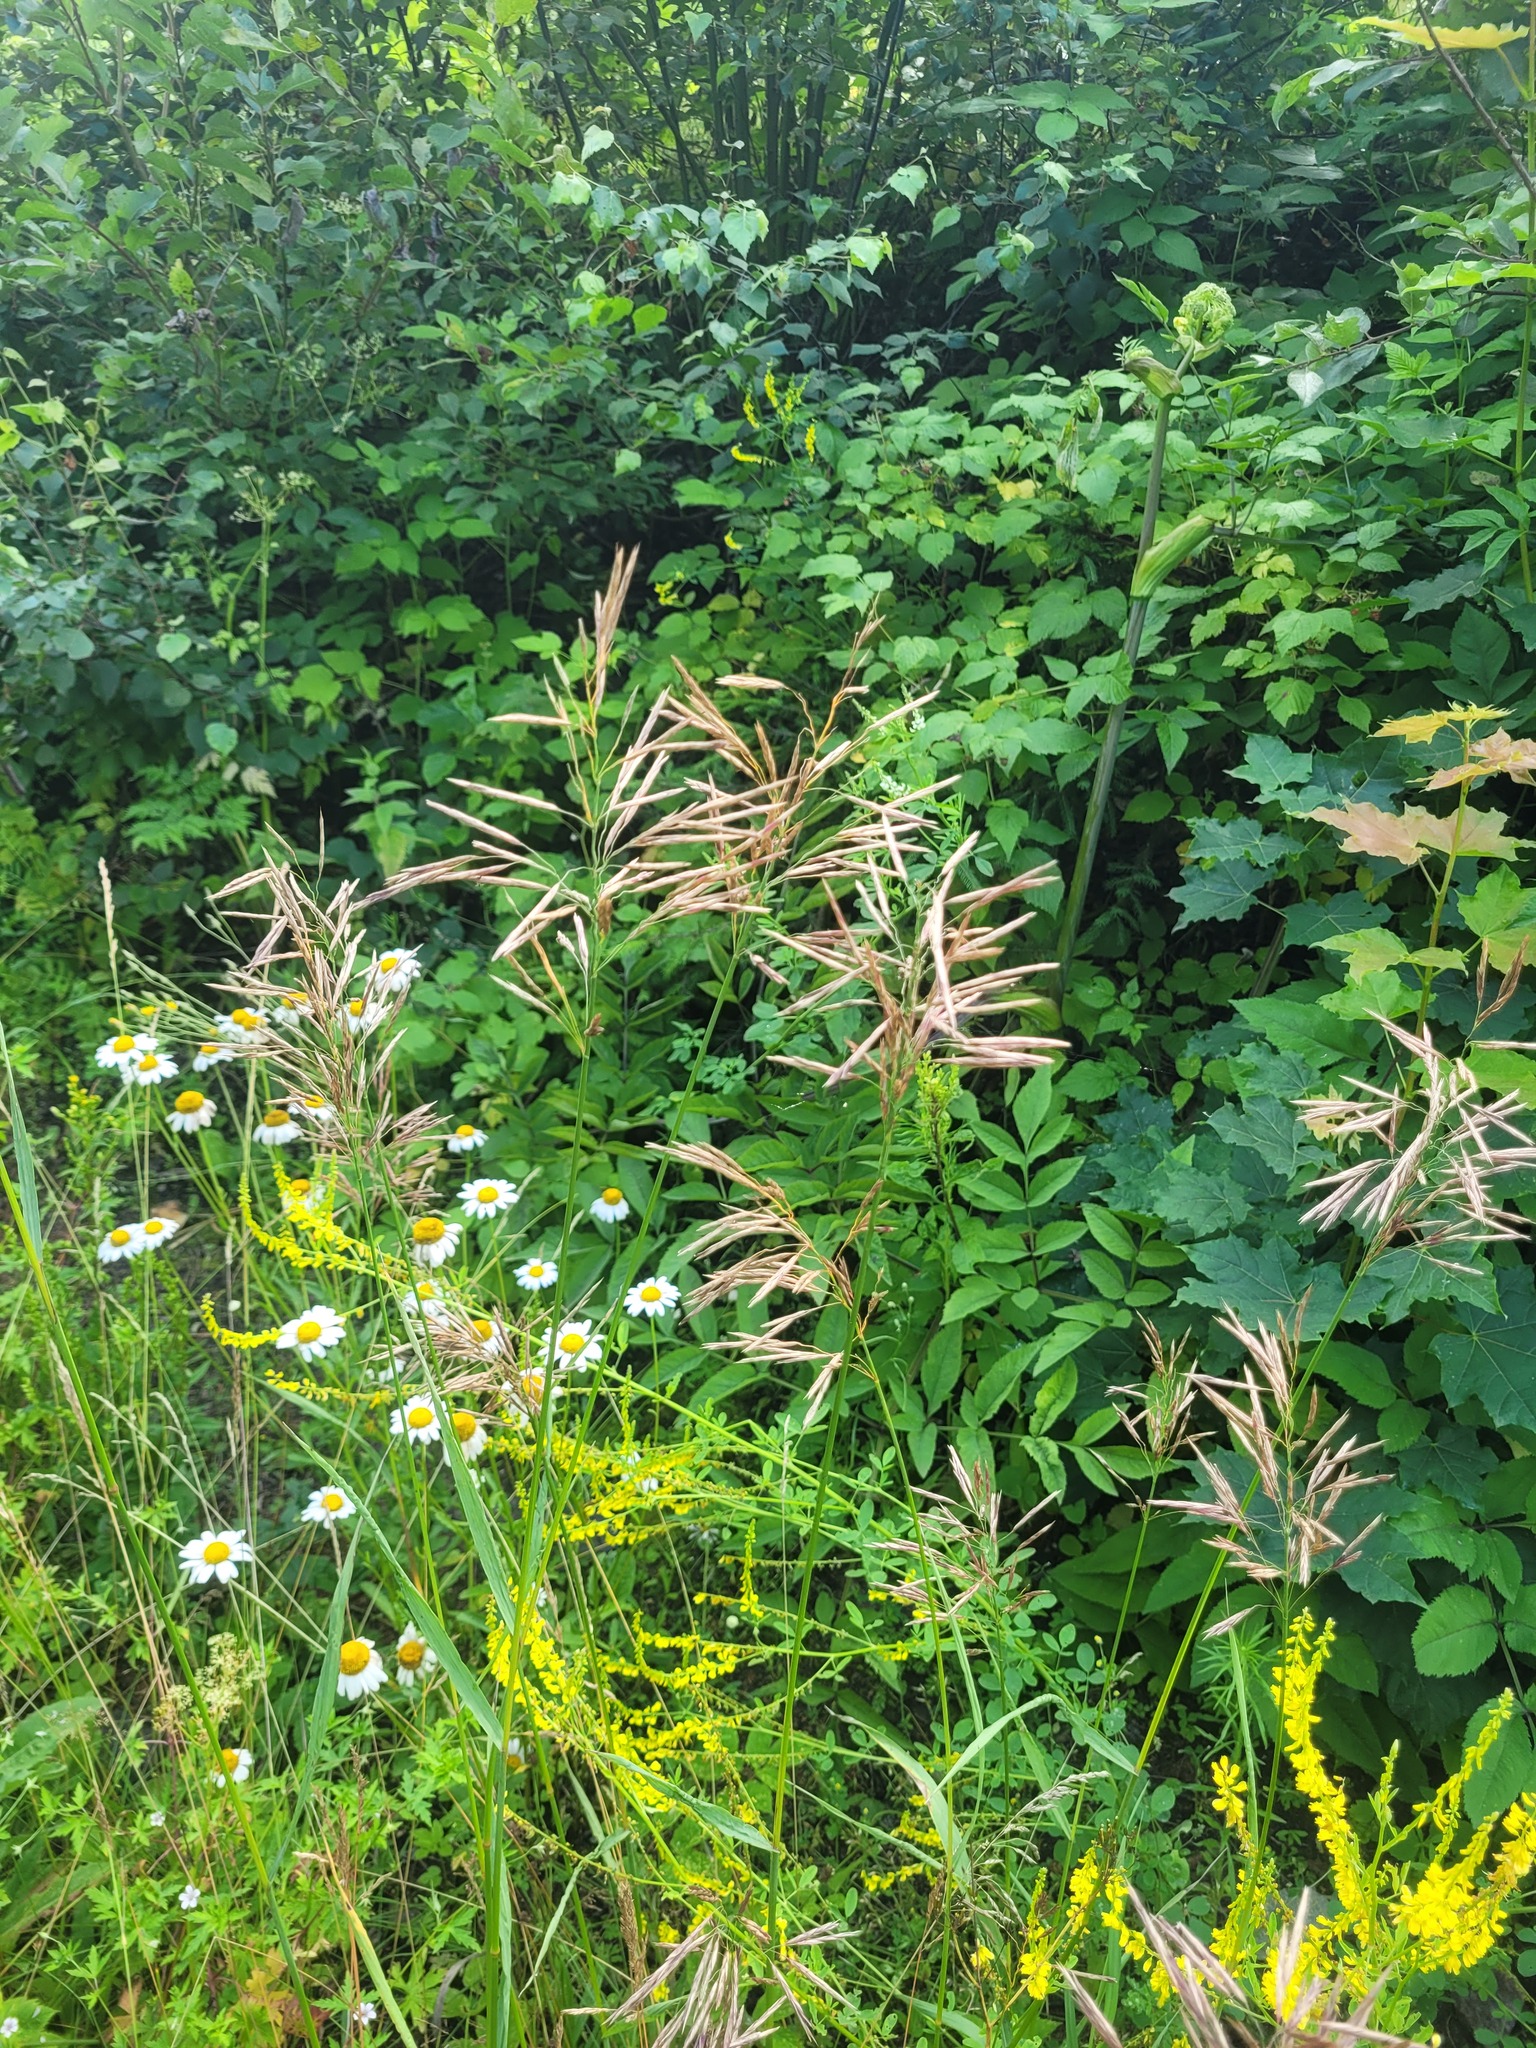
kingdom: Plantae
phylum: Tracheophyta
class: Liliopsida
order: Poales
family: Poaceae
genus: Bromus
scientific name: Bromus inermis
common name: Smooth brome
